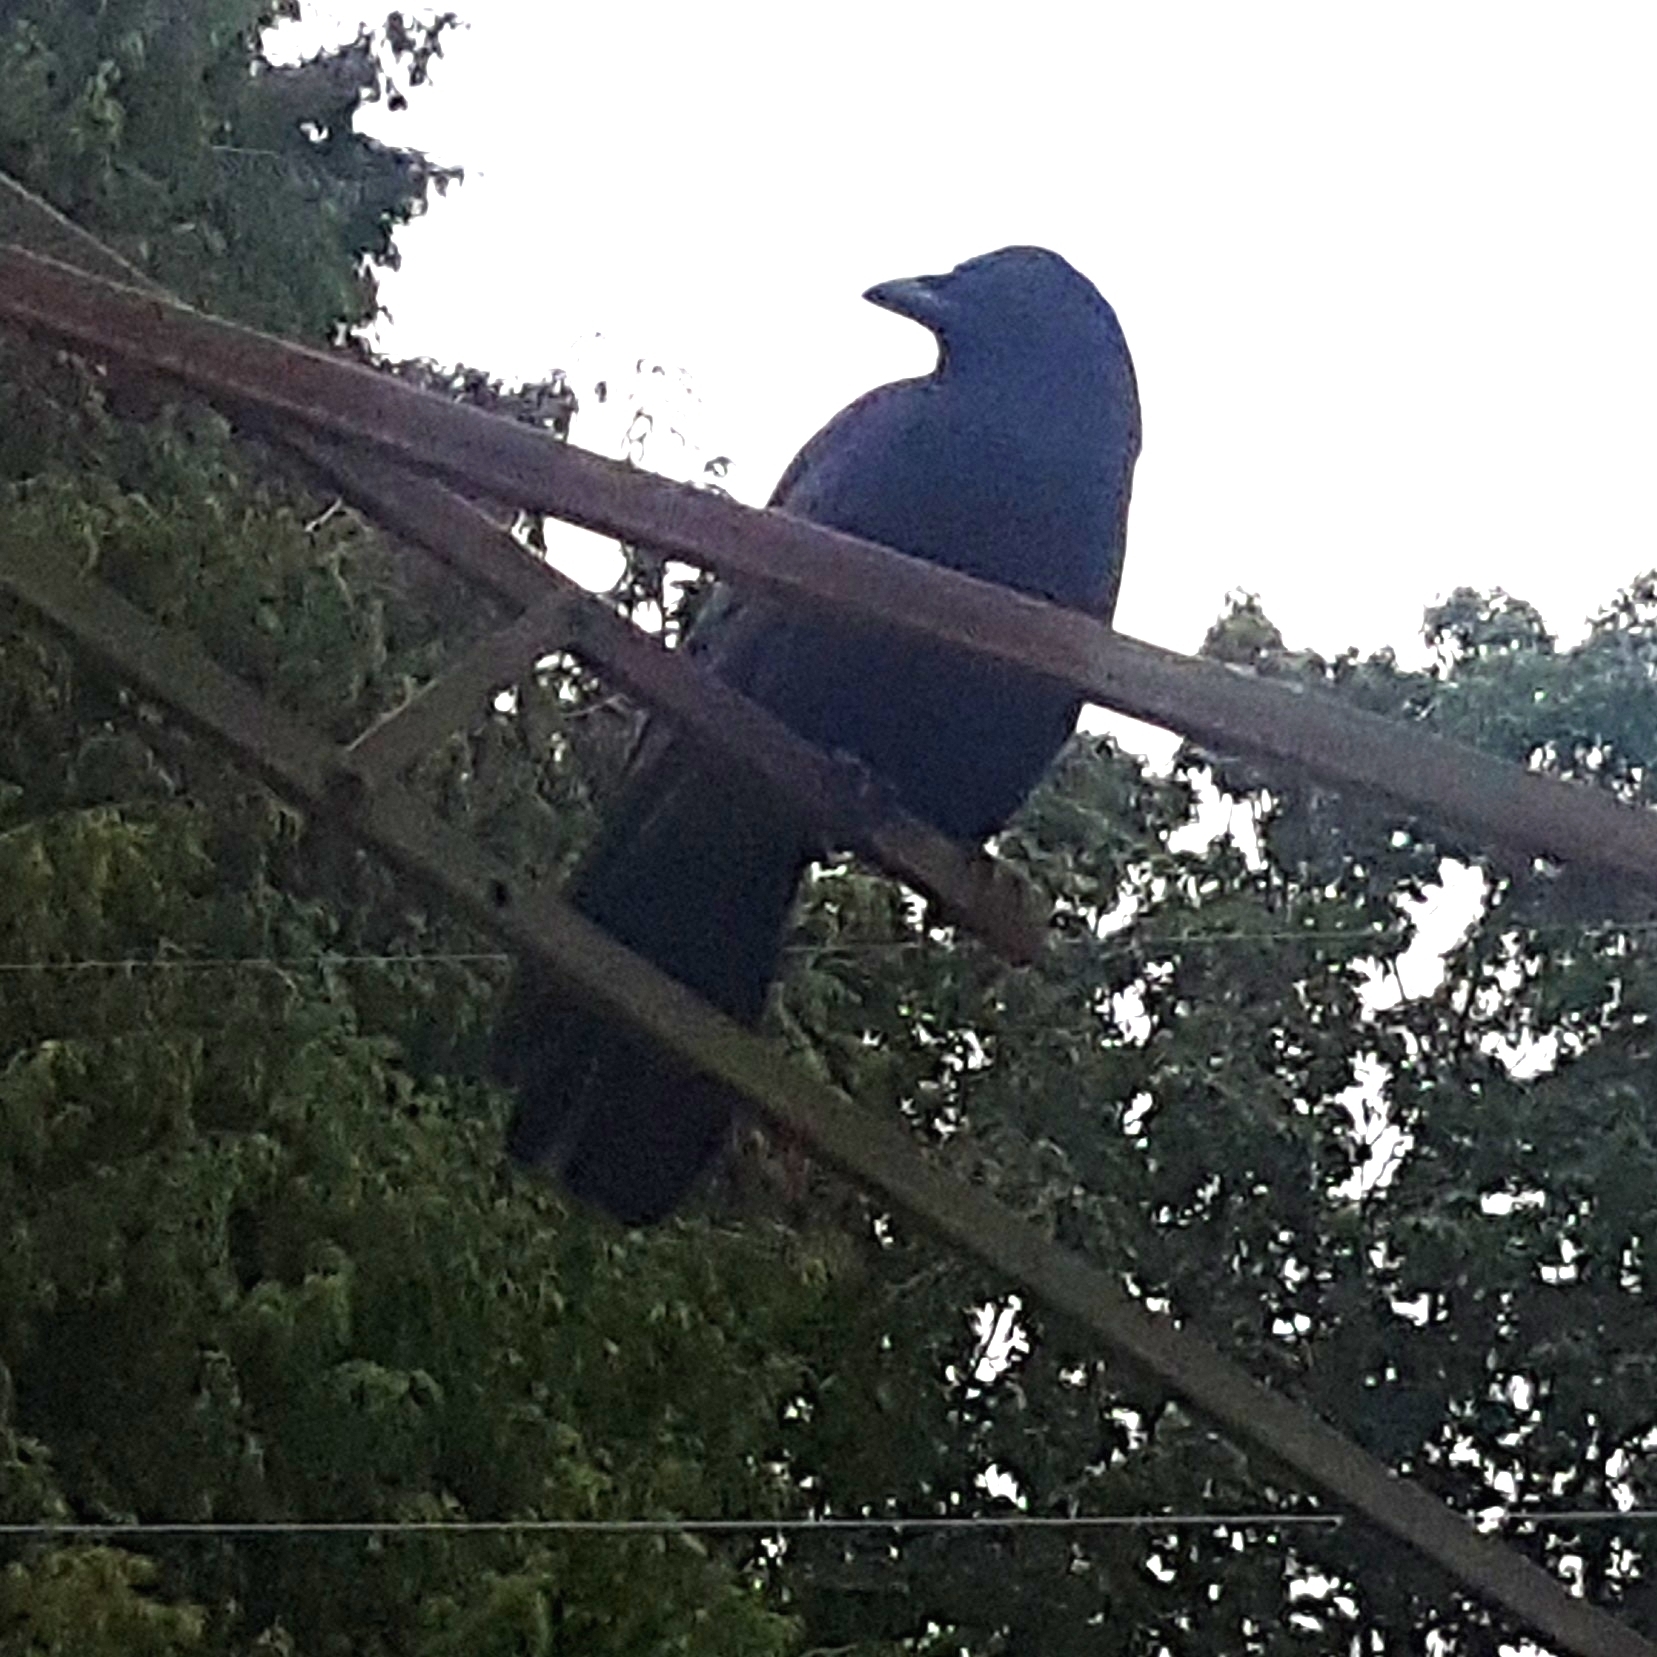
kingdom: Animalia
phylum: Chordata
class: Aves
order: Passeriformes
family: Corvidae
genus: Corvus
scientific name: Corvus brachyrhynchos
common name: American crow
